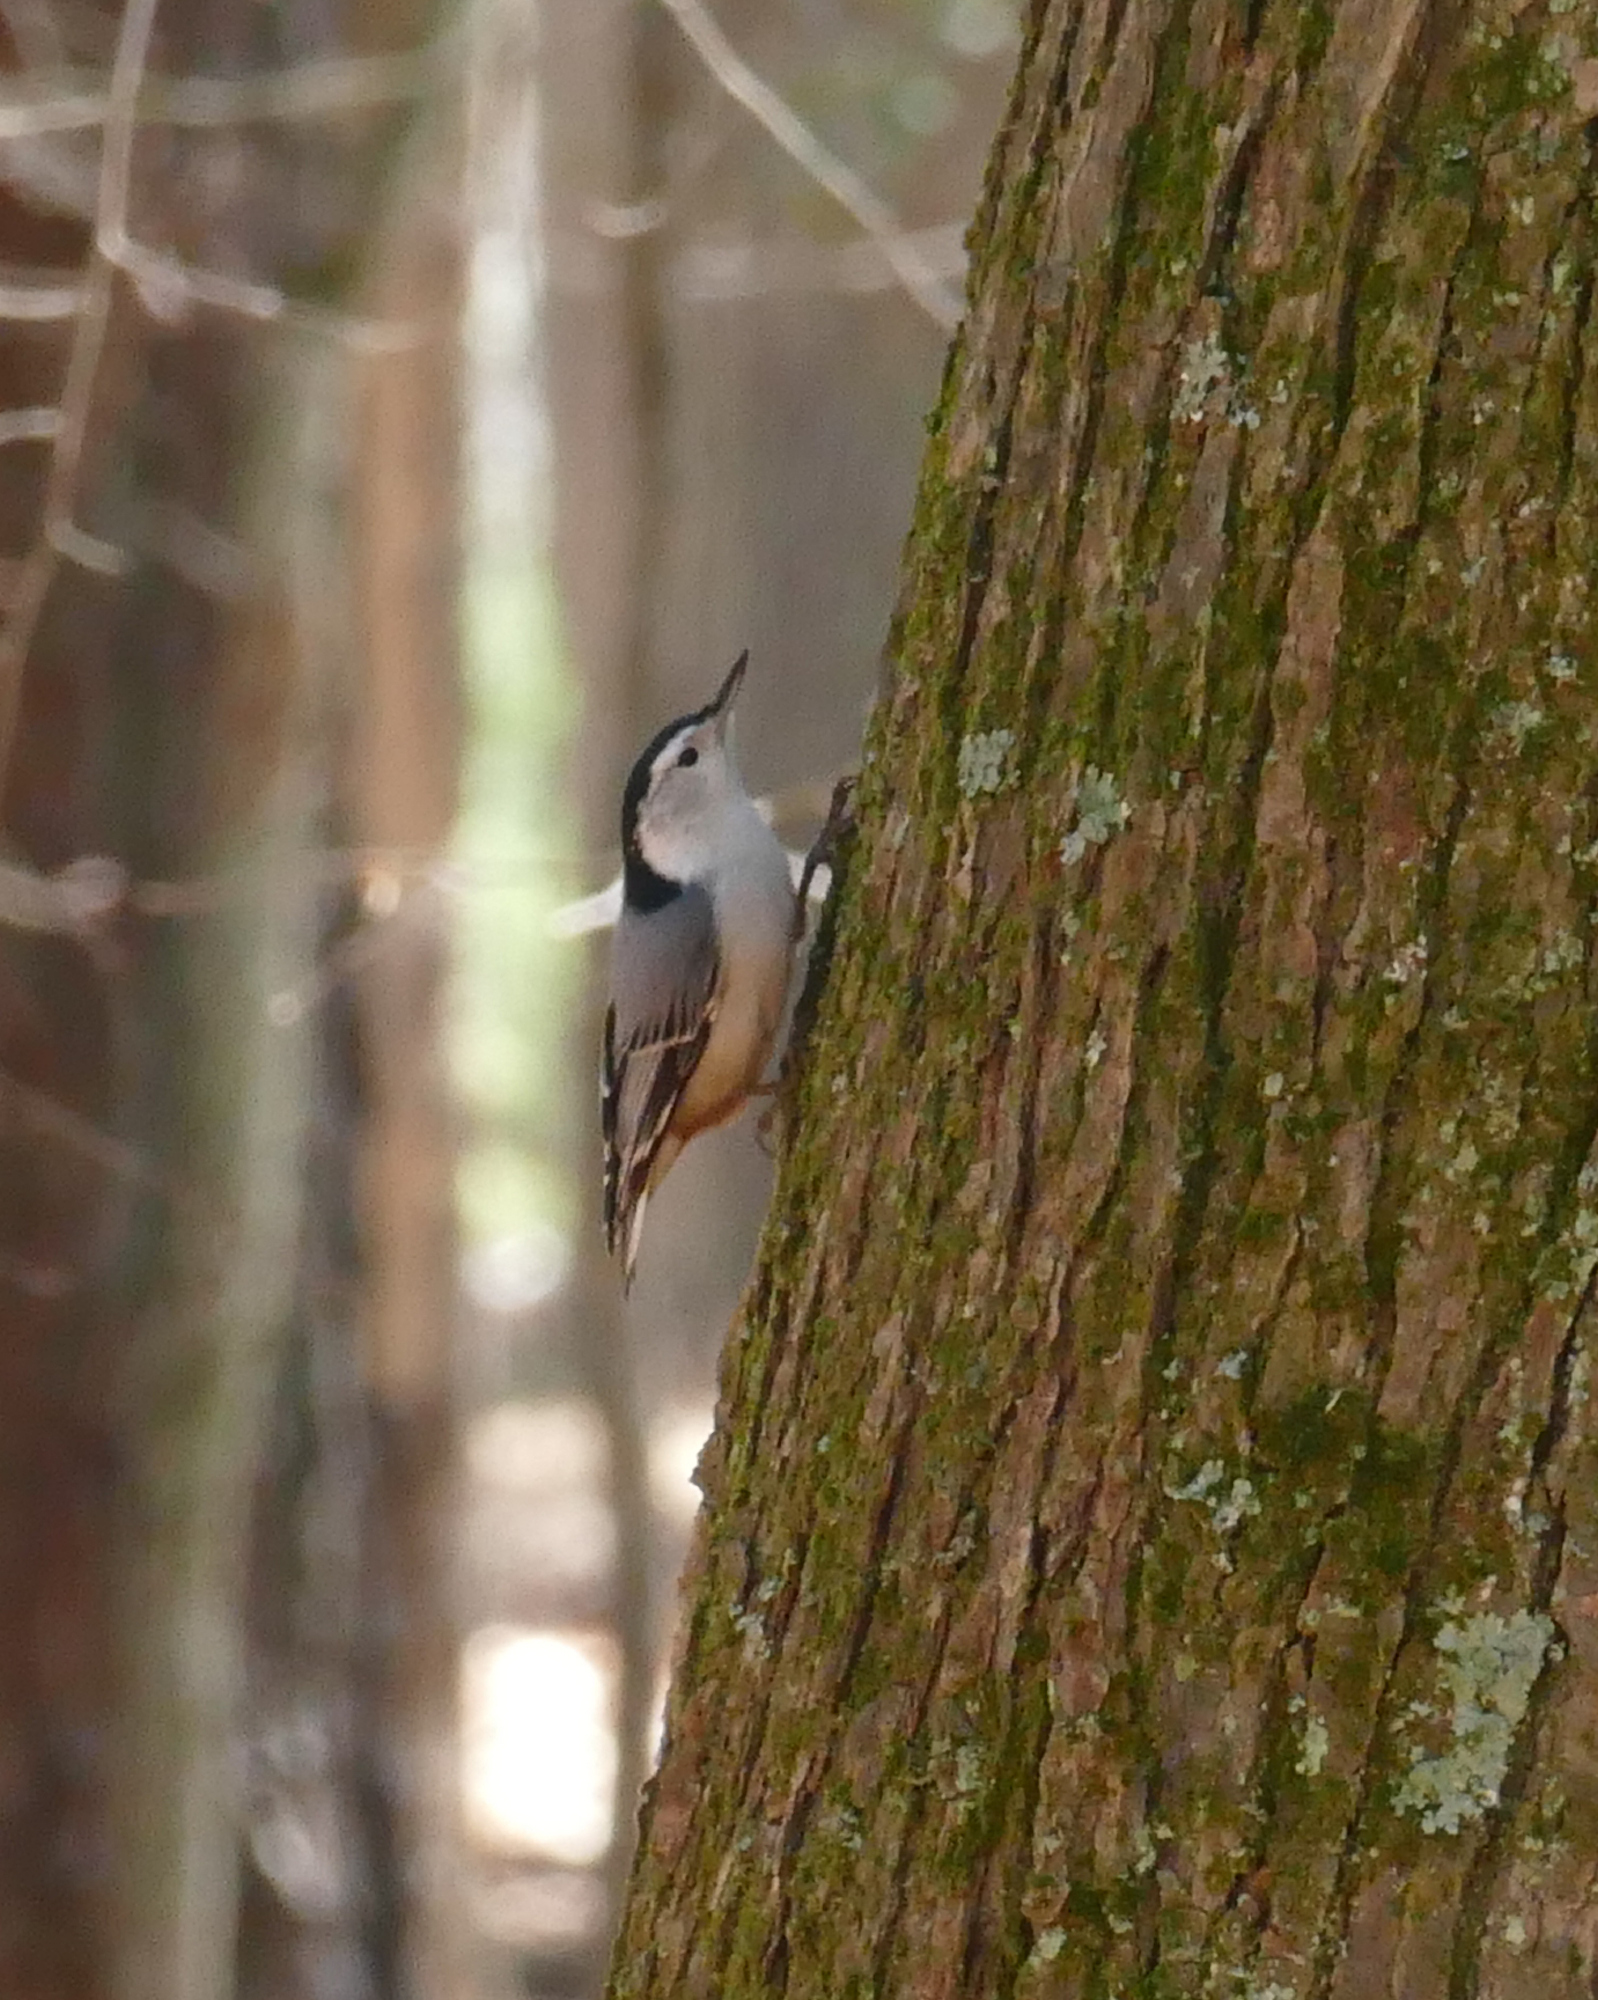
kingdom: Animalia
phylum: Chordata
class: Aves
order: Passeriformes
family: Sittidae
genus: Sitta
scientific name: Sitta carolinensis
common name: White-breasted nuthatch
